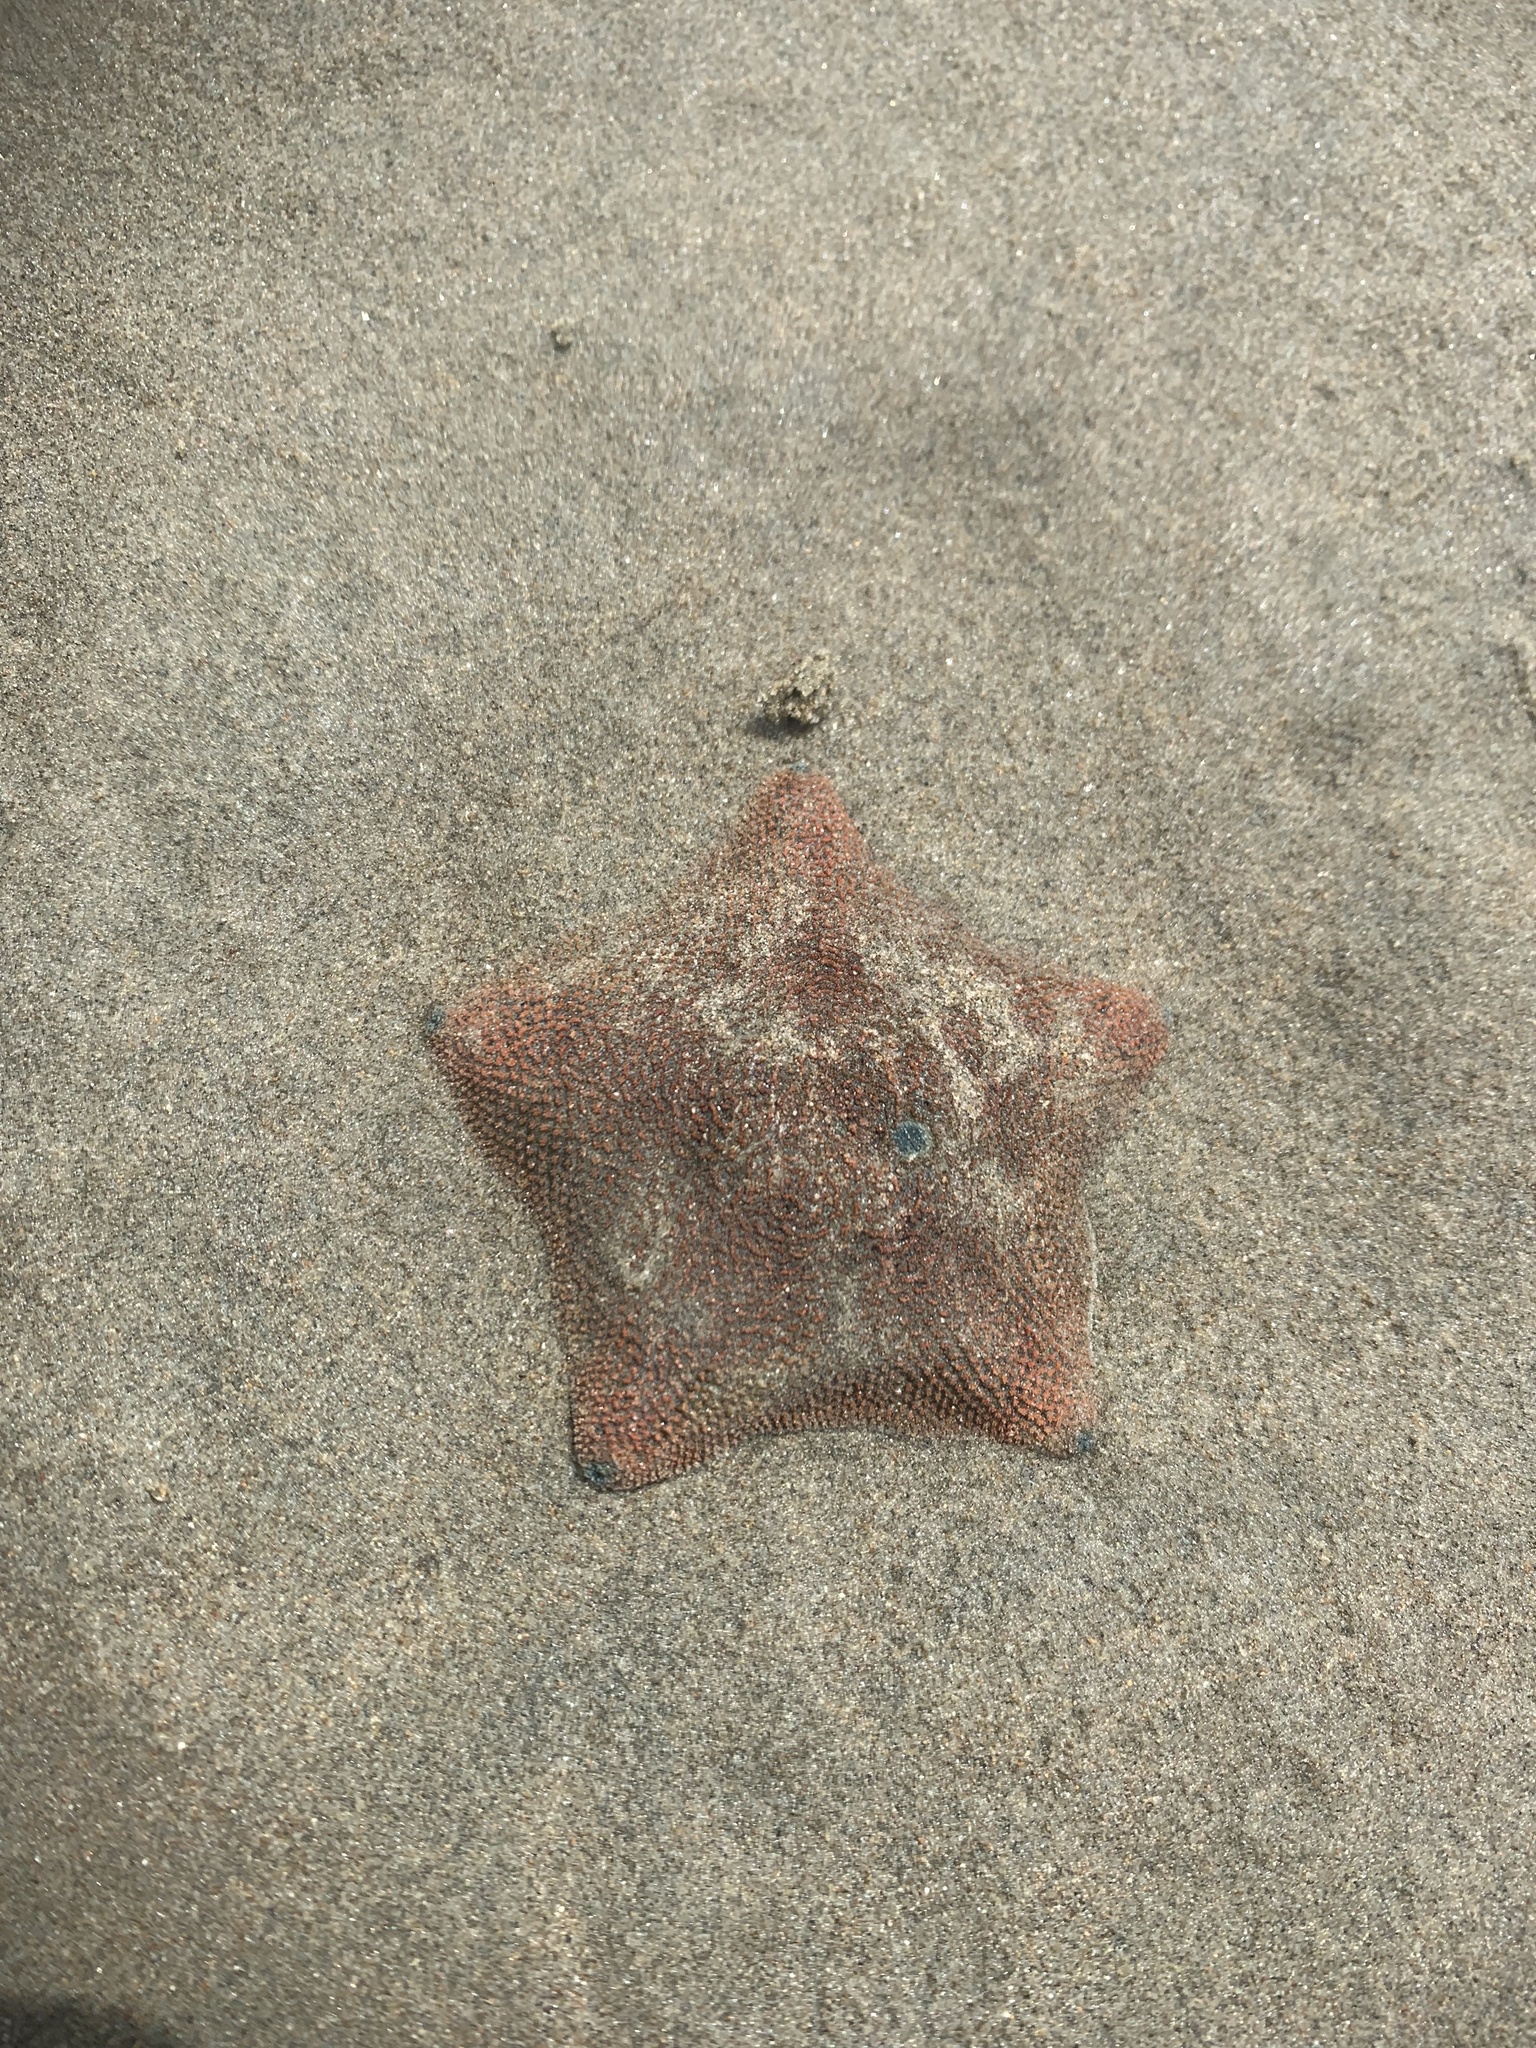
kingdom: Animalia
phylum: Echinodermata
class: Asteroidea
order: Valvatida
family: Asterinidae
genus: Patiriella
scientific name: Patiriella regularis
